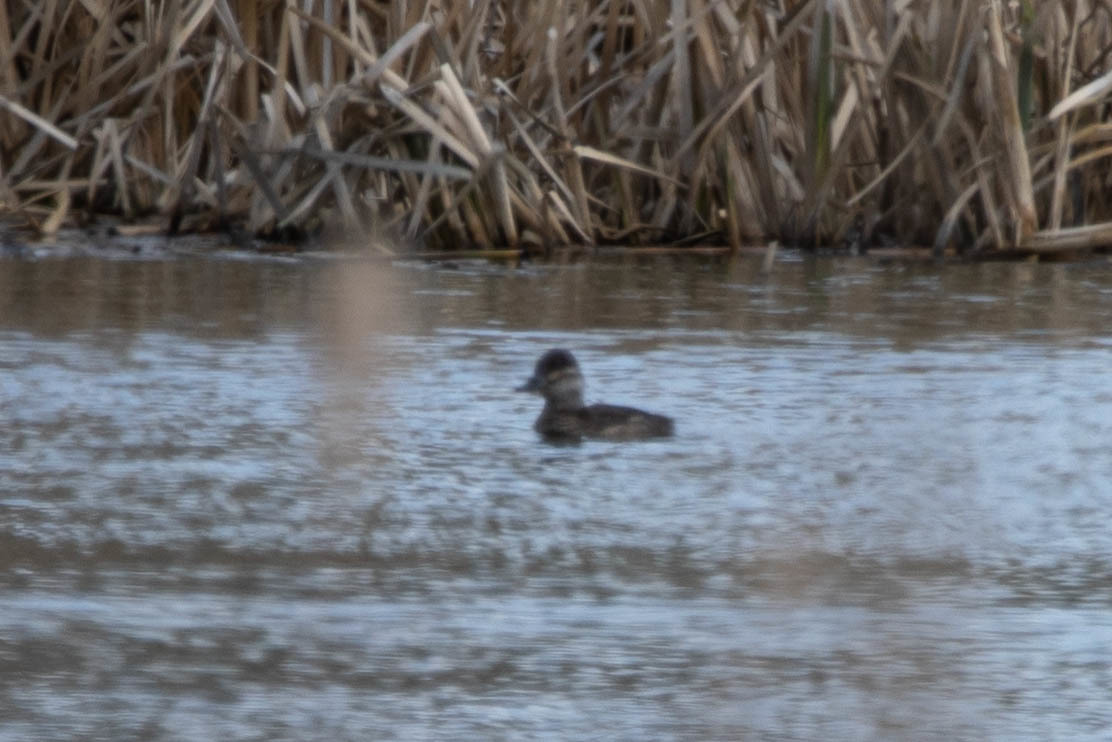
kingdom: Animalia
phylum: Chordata
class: Aves
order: Anseriformes
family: Anatidae
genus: Oxyura
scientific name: Oxyura jamaicensis
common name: Ruddy duck
